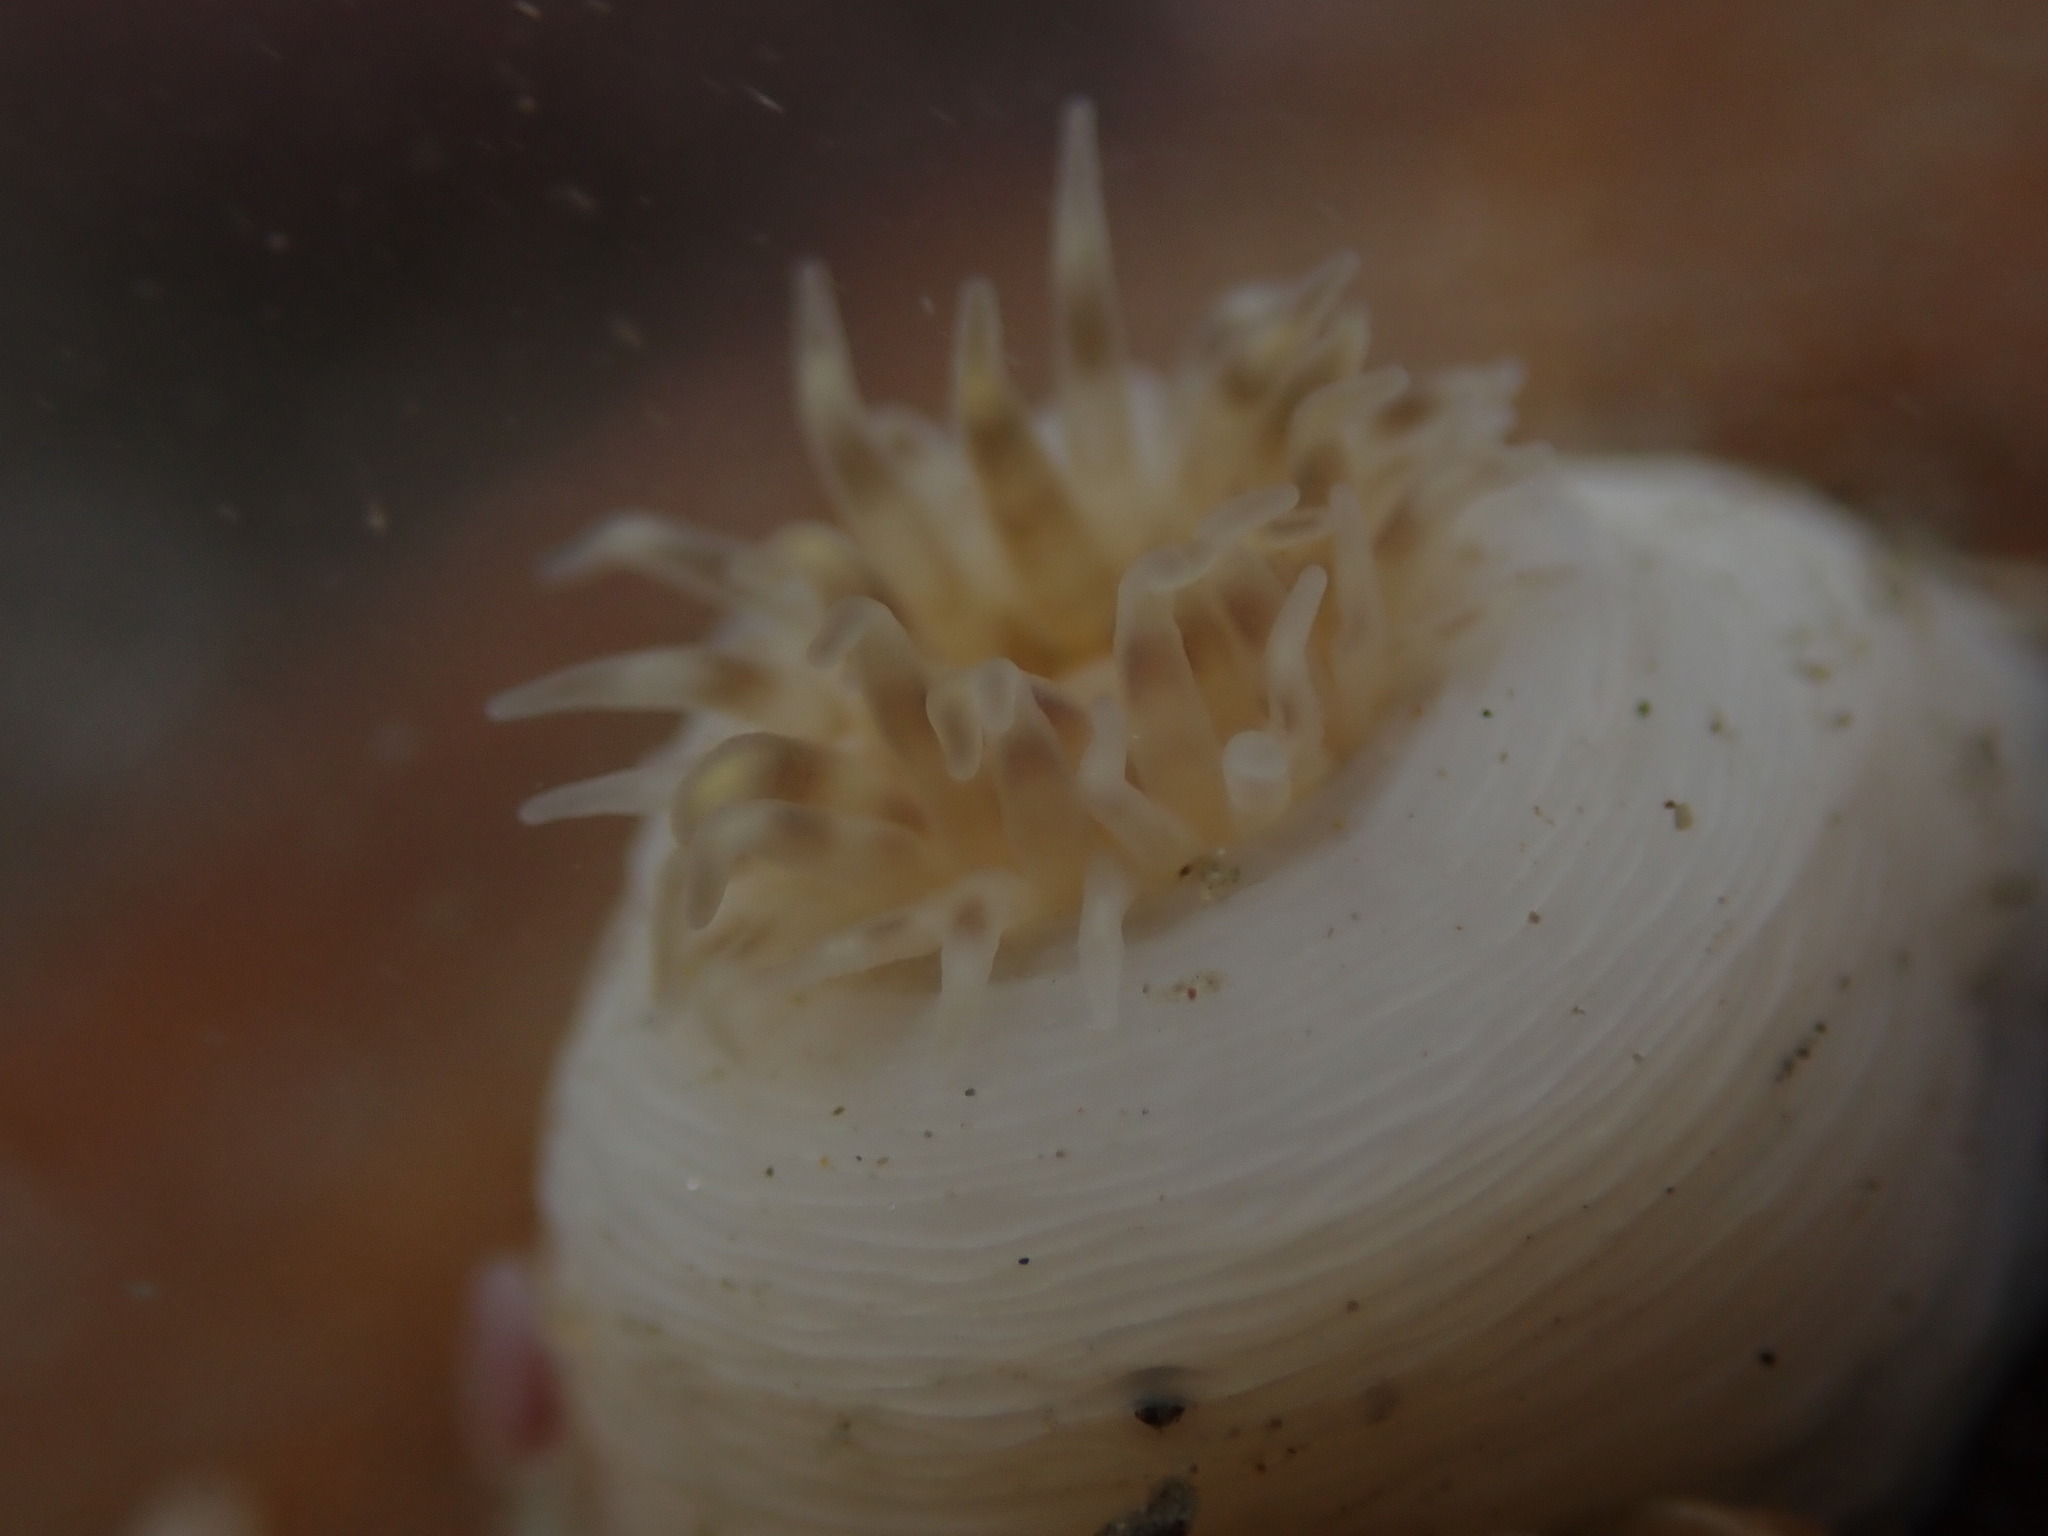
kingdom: Animalia
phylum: Cnidaria
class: Anthozoa
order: Actiniaria
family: Isanthidae
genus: Isoparactis
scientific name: Isoparactis ferax
